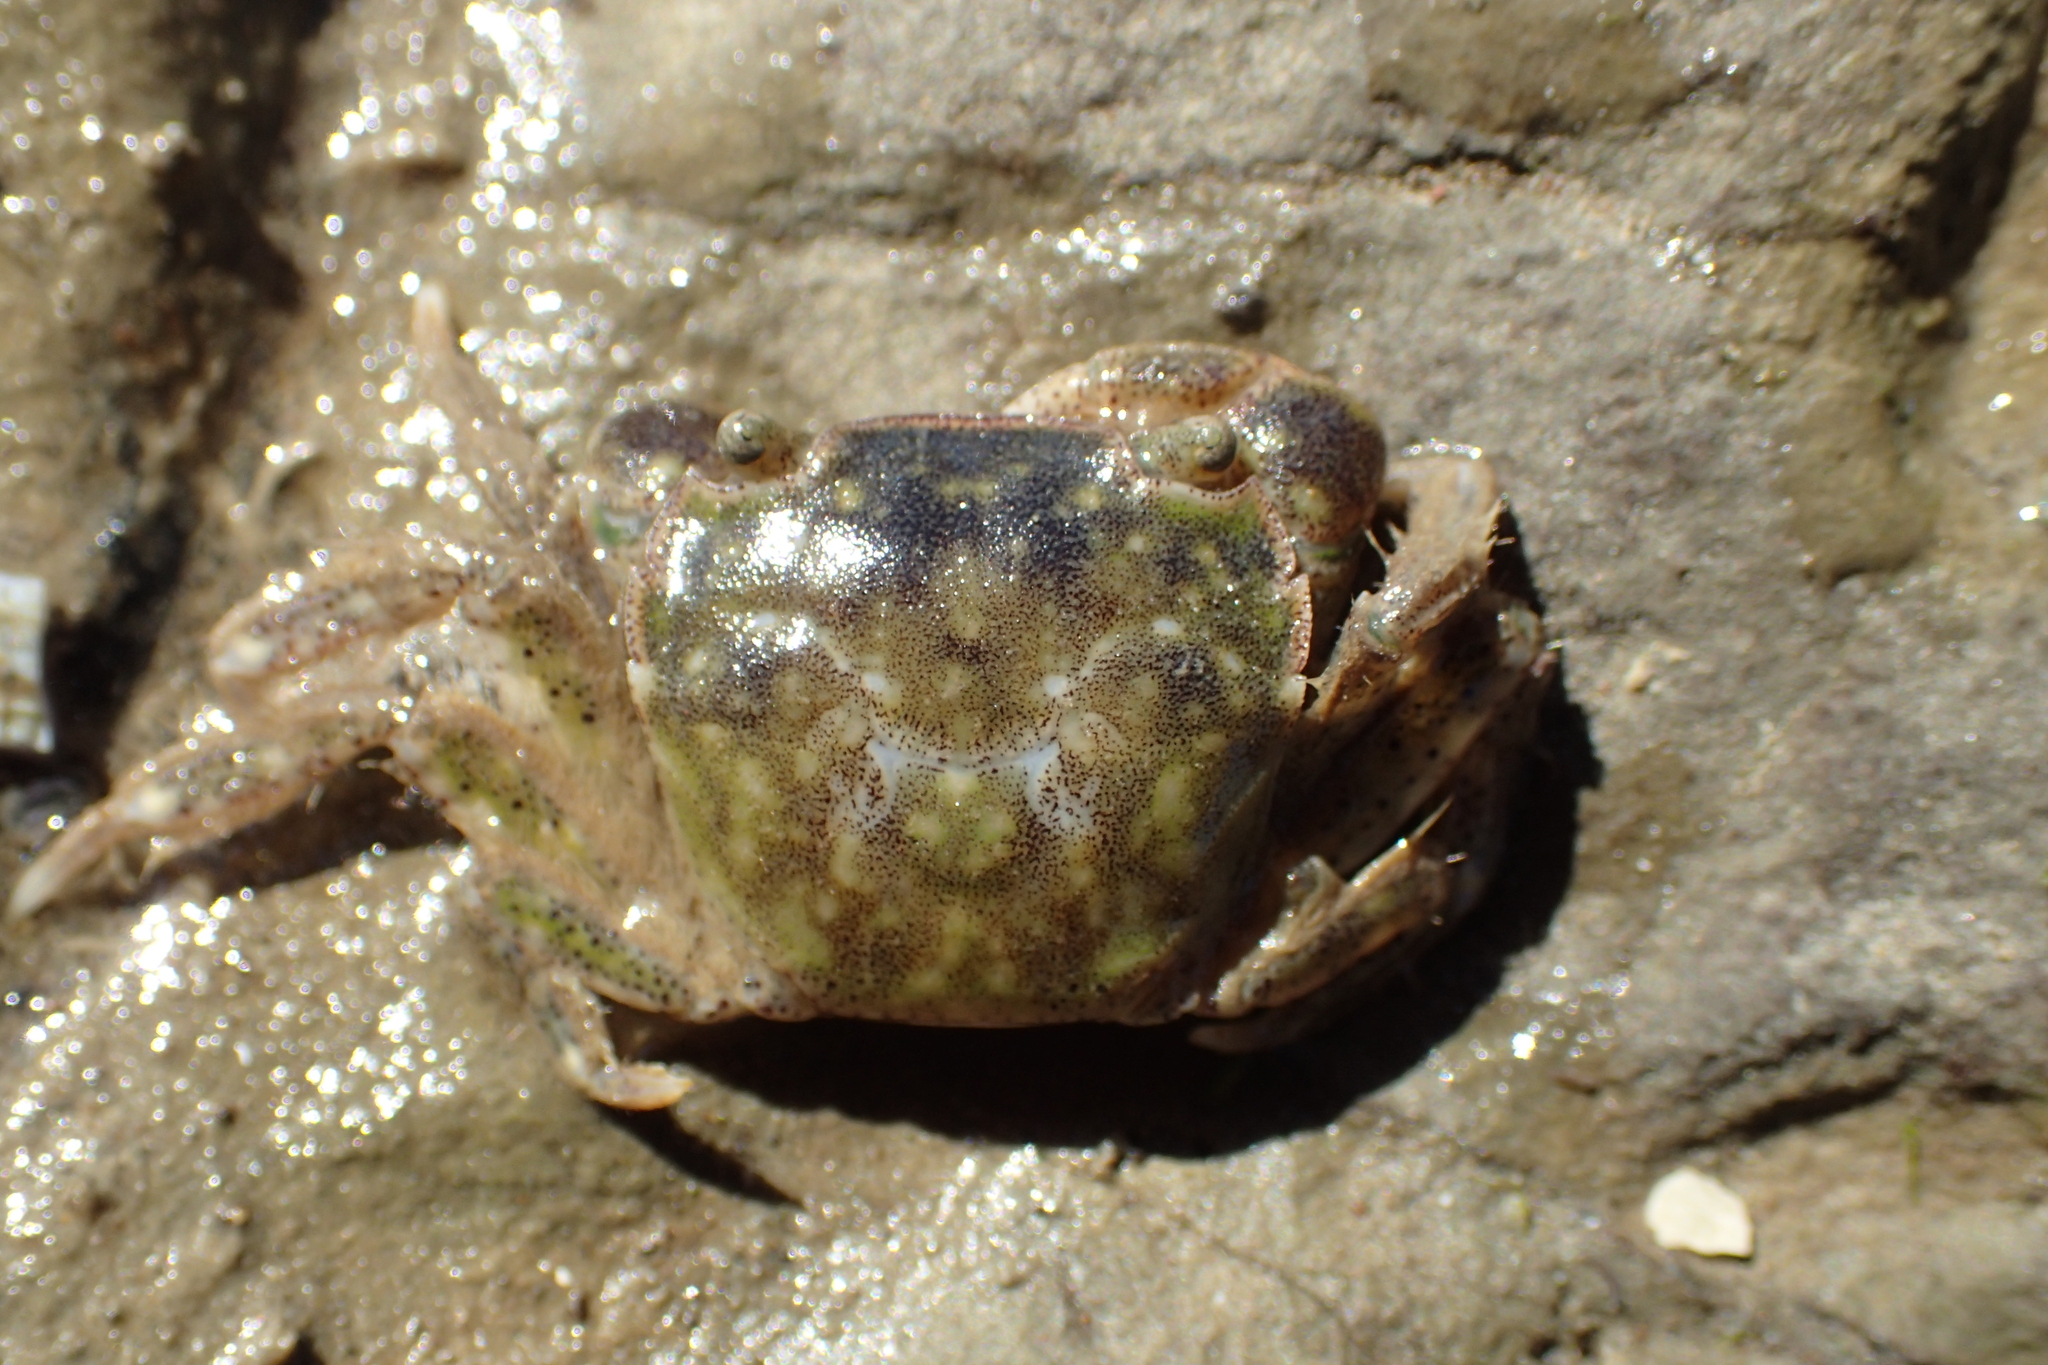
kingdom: Animalia
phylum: Arthropoda
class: Malacostraca
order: Decapoda
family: Varunidae
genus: Hemigrapsus
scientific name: Hemigrapsus crenulatus
